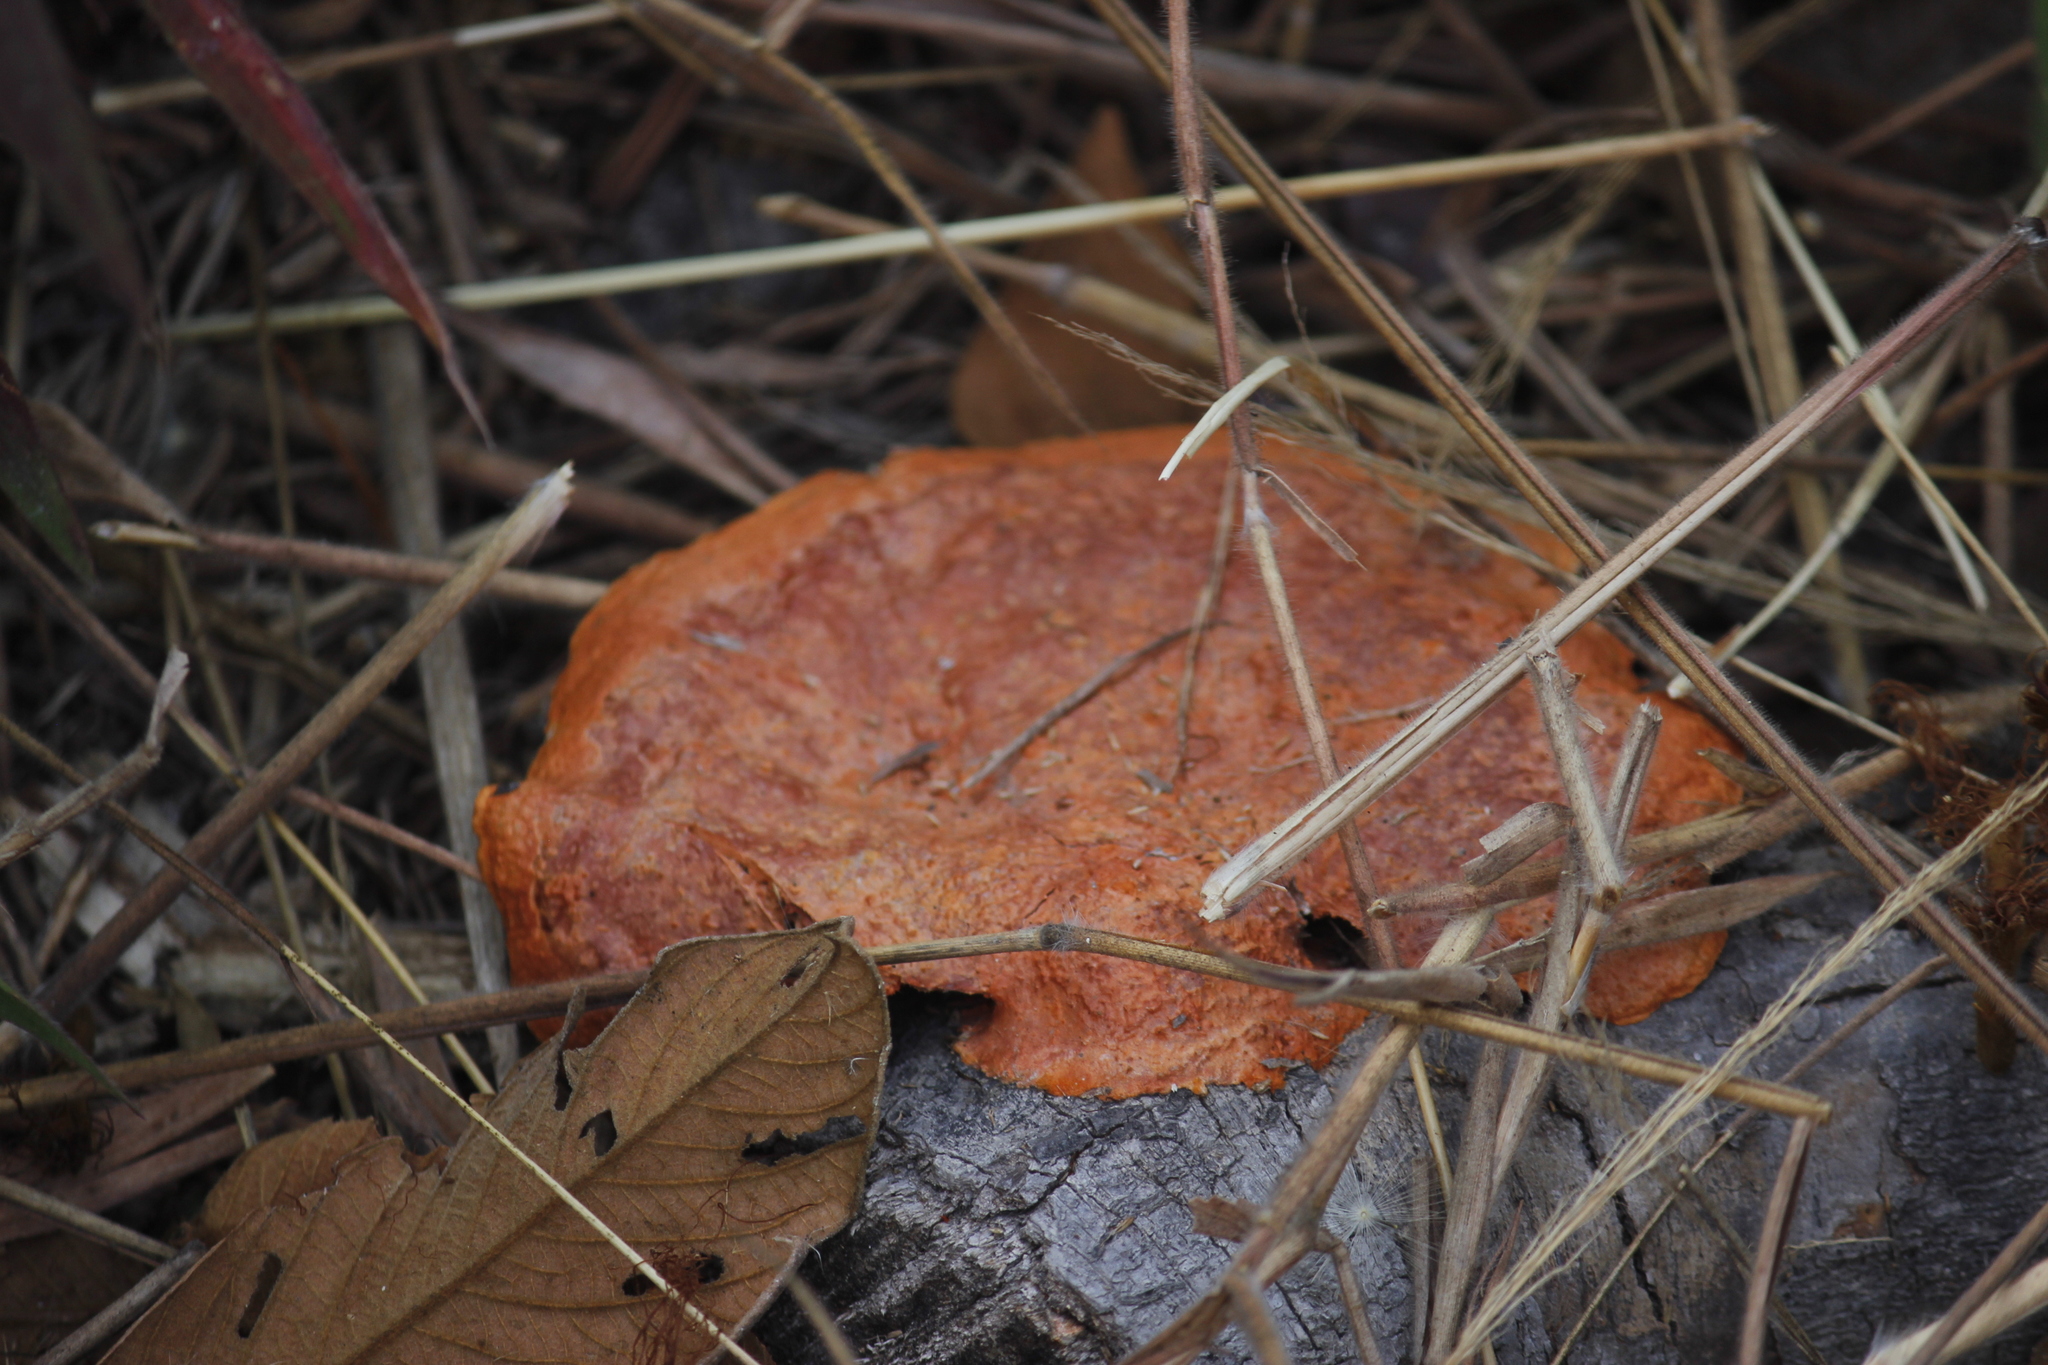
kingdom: Fungi
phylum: Basidiomycota
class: Agaricomycetes
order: Polyporales
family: Polyporaceae
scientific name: Polyporaceae
